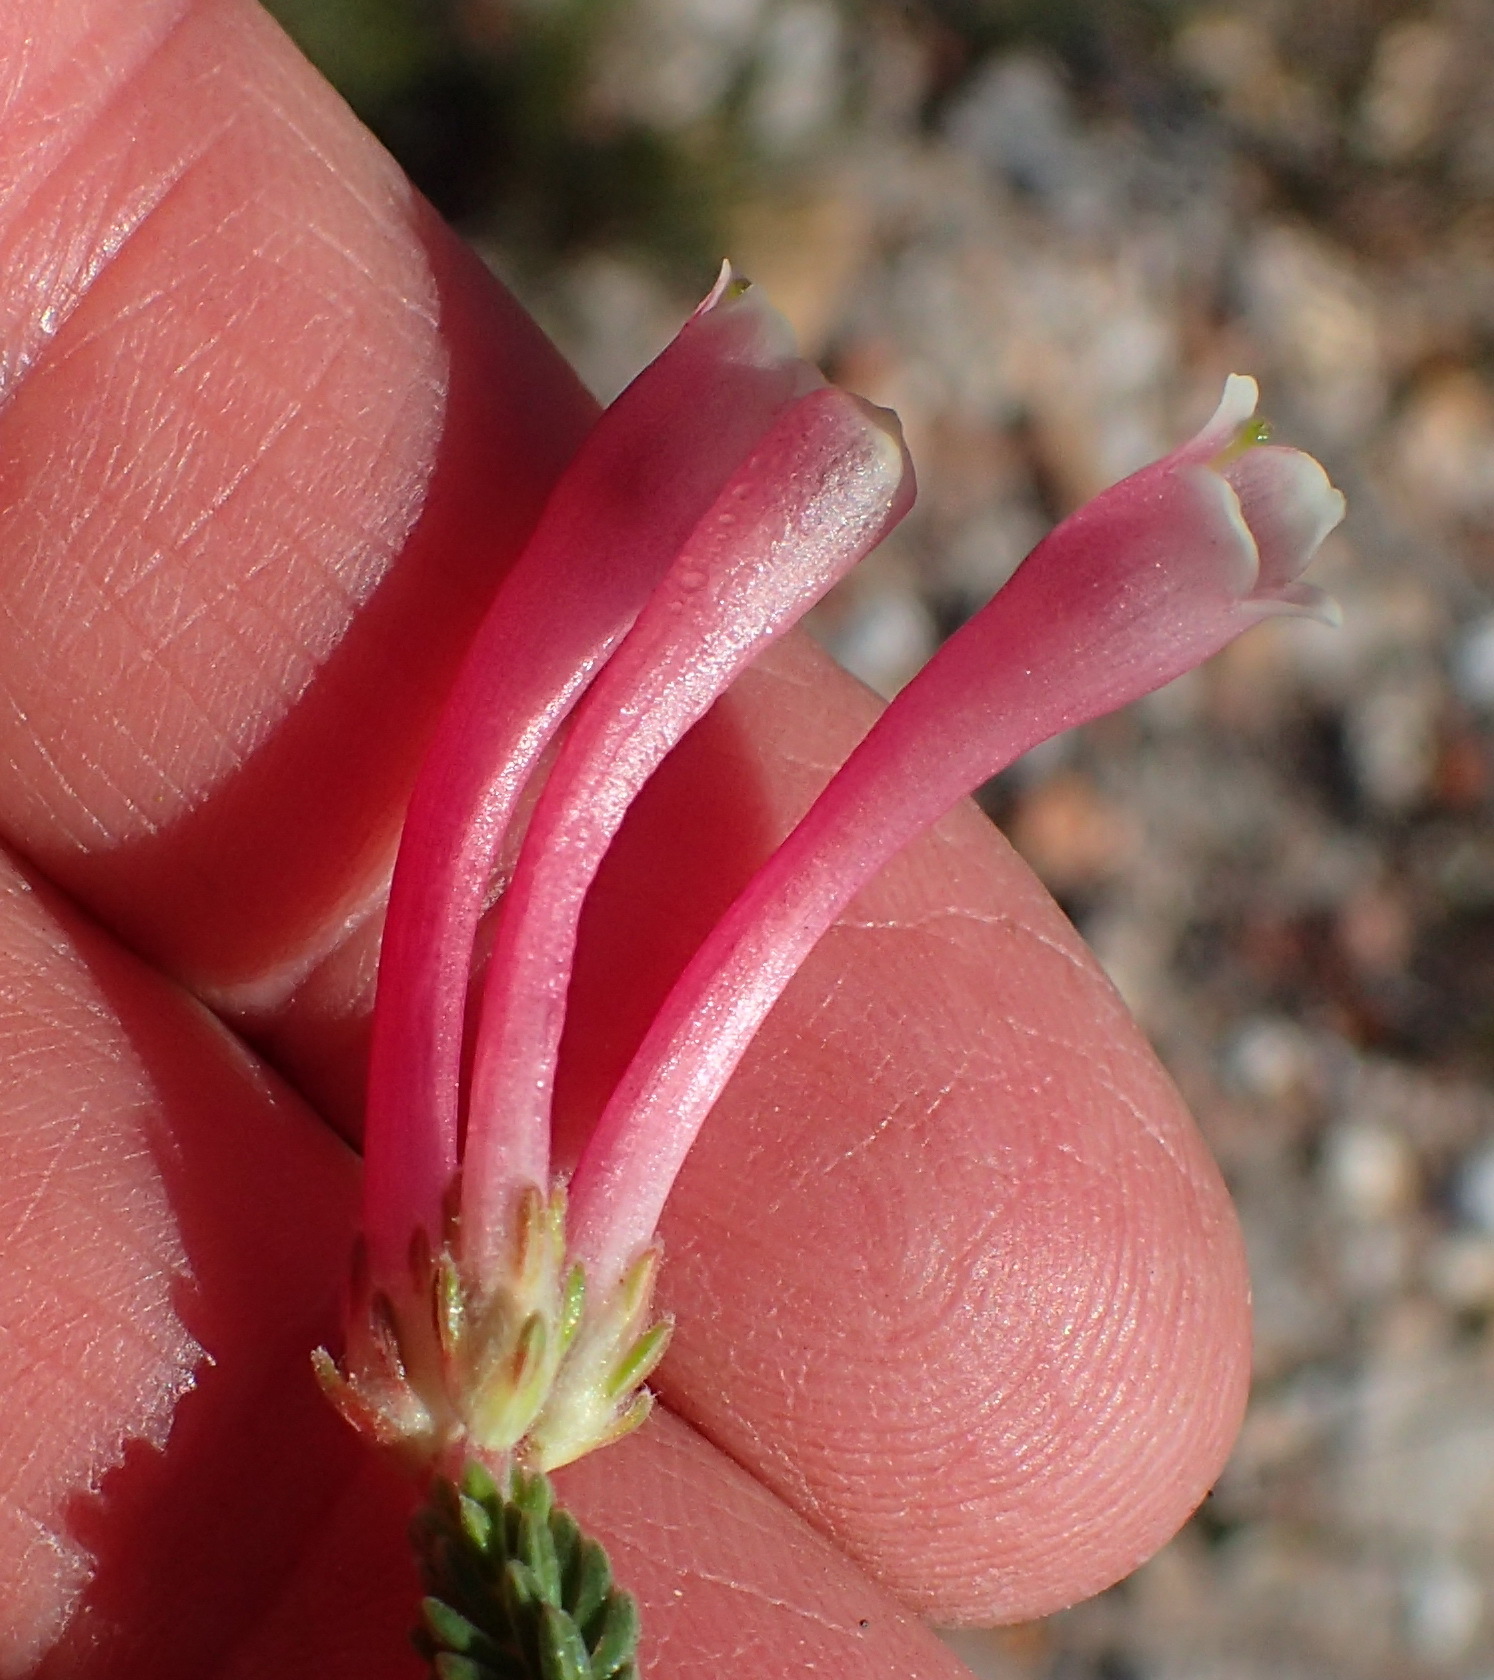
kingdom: Plantae
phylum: Tracheophyta
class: Magnoliopsida
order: Ericales
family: Ericaceae
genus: Erica
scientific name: Erica discolor
